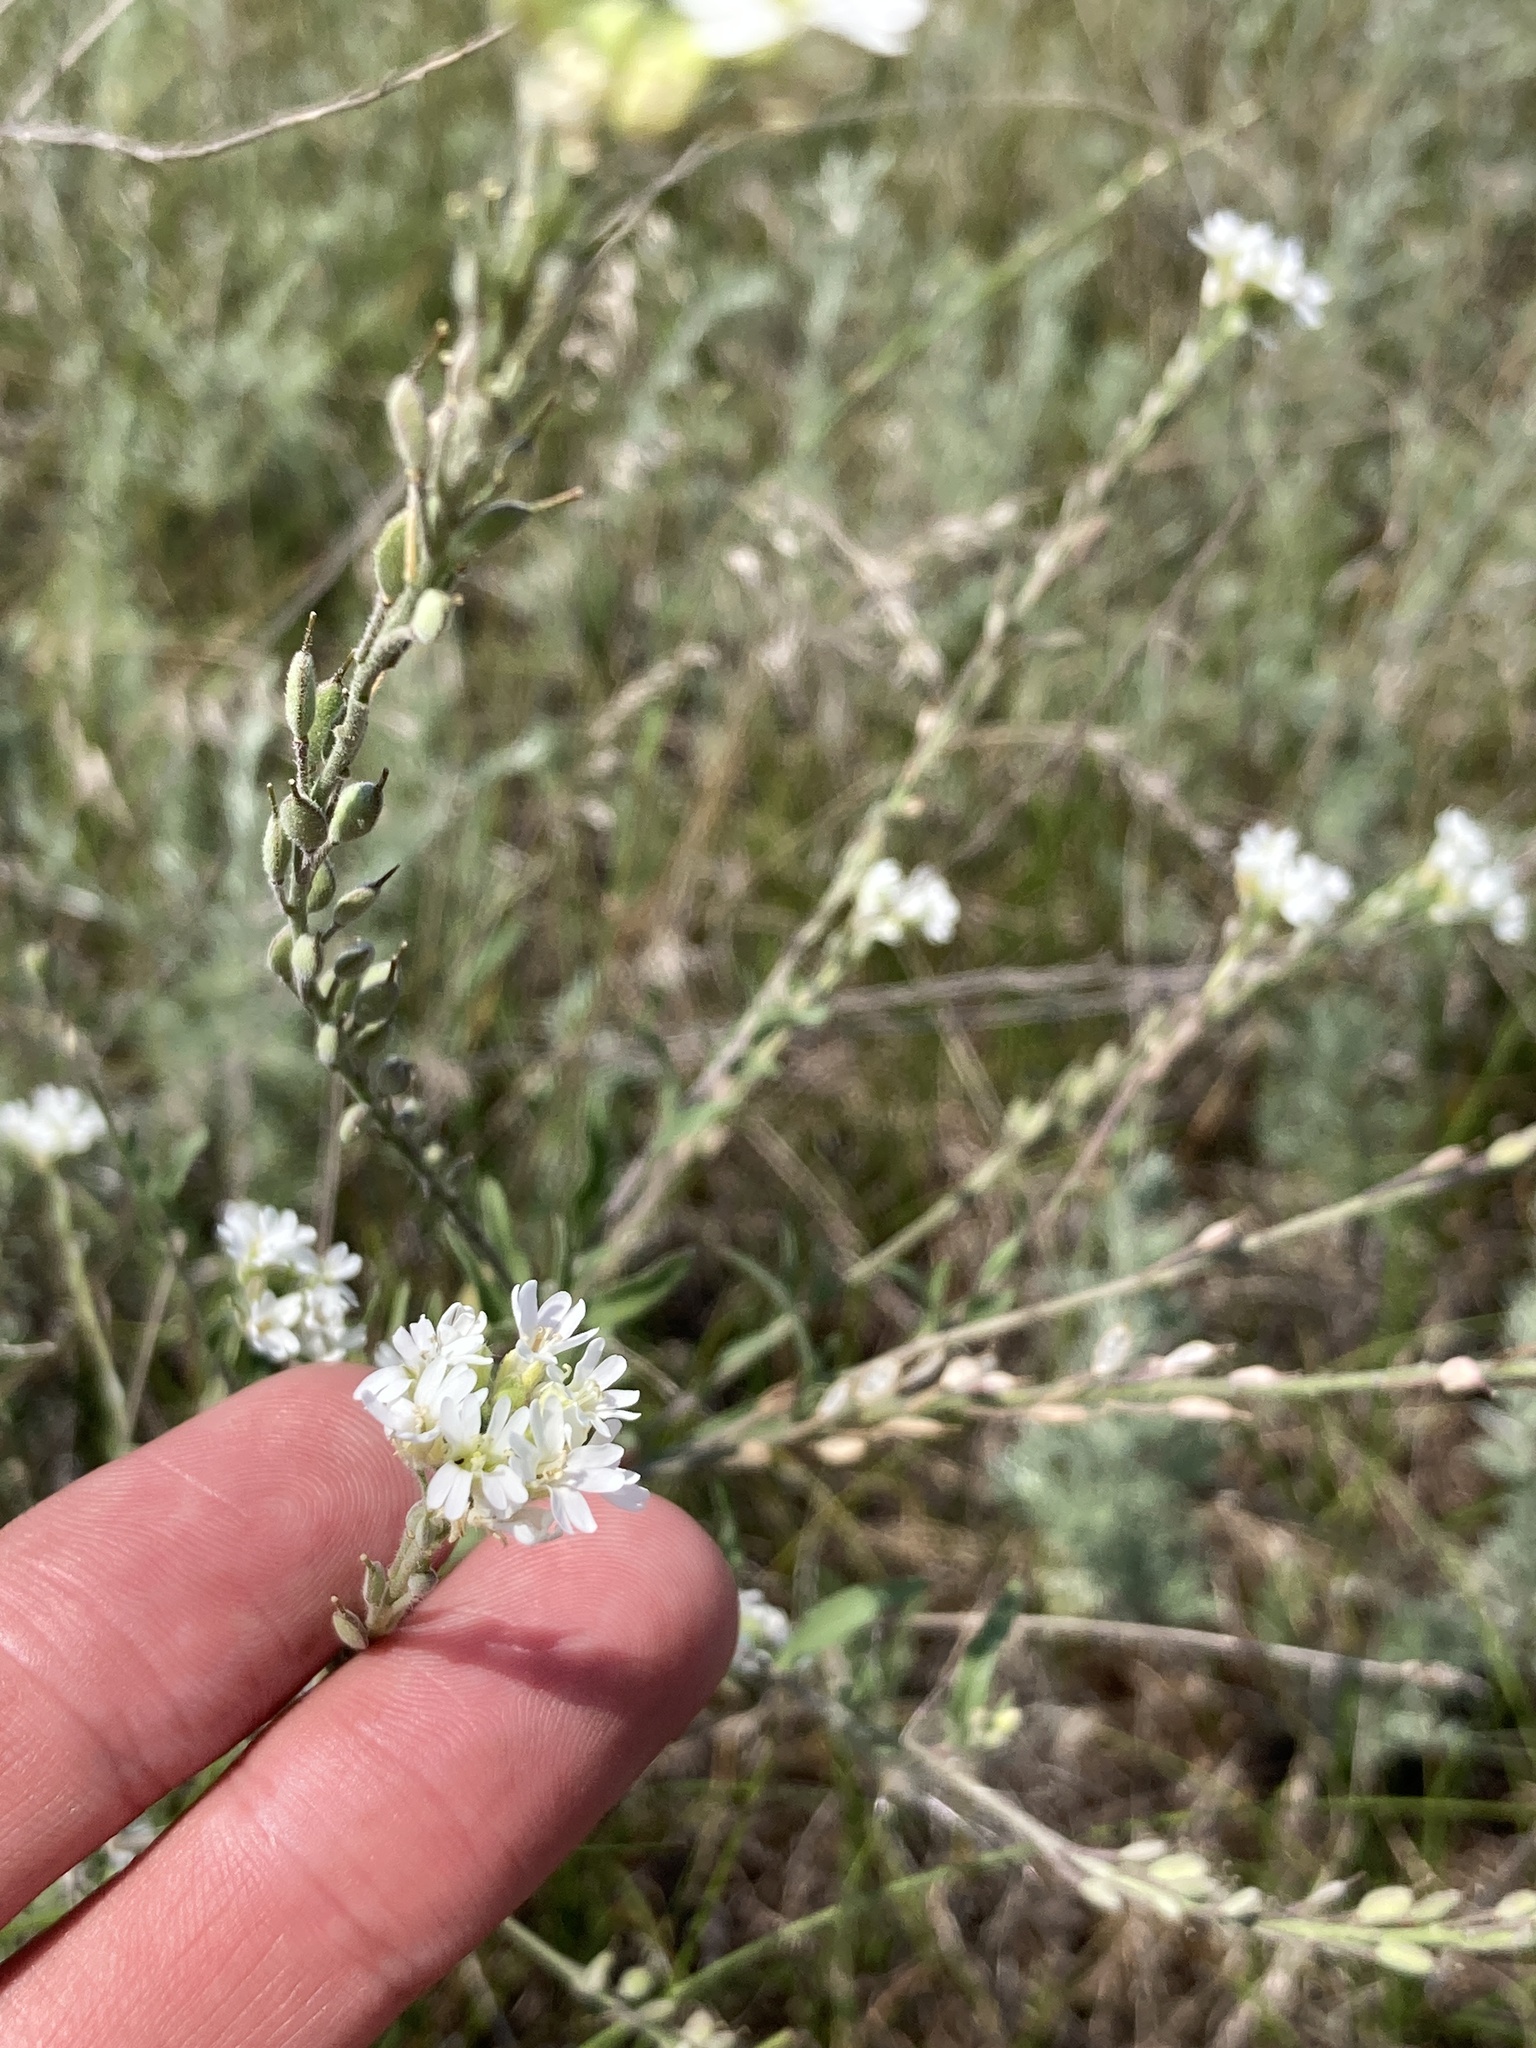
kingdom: Plantae
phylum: Tracheophyta
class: Magnoliopsida
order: Brassicales
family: Brassicaceae
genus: Berteroa
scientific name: Berteroa incana
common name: Hoary alison
